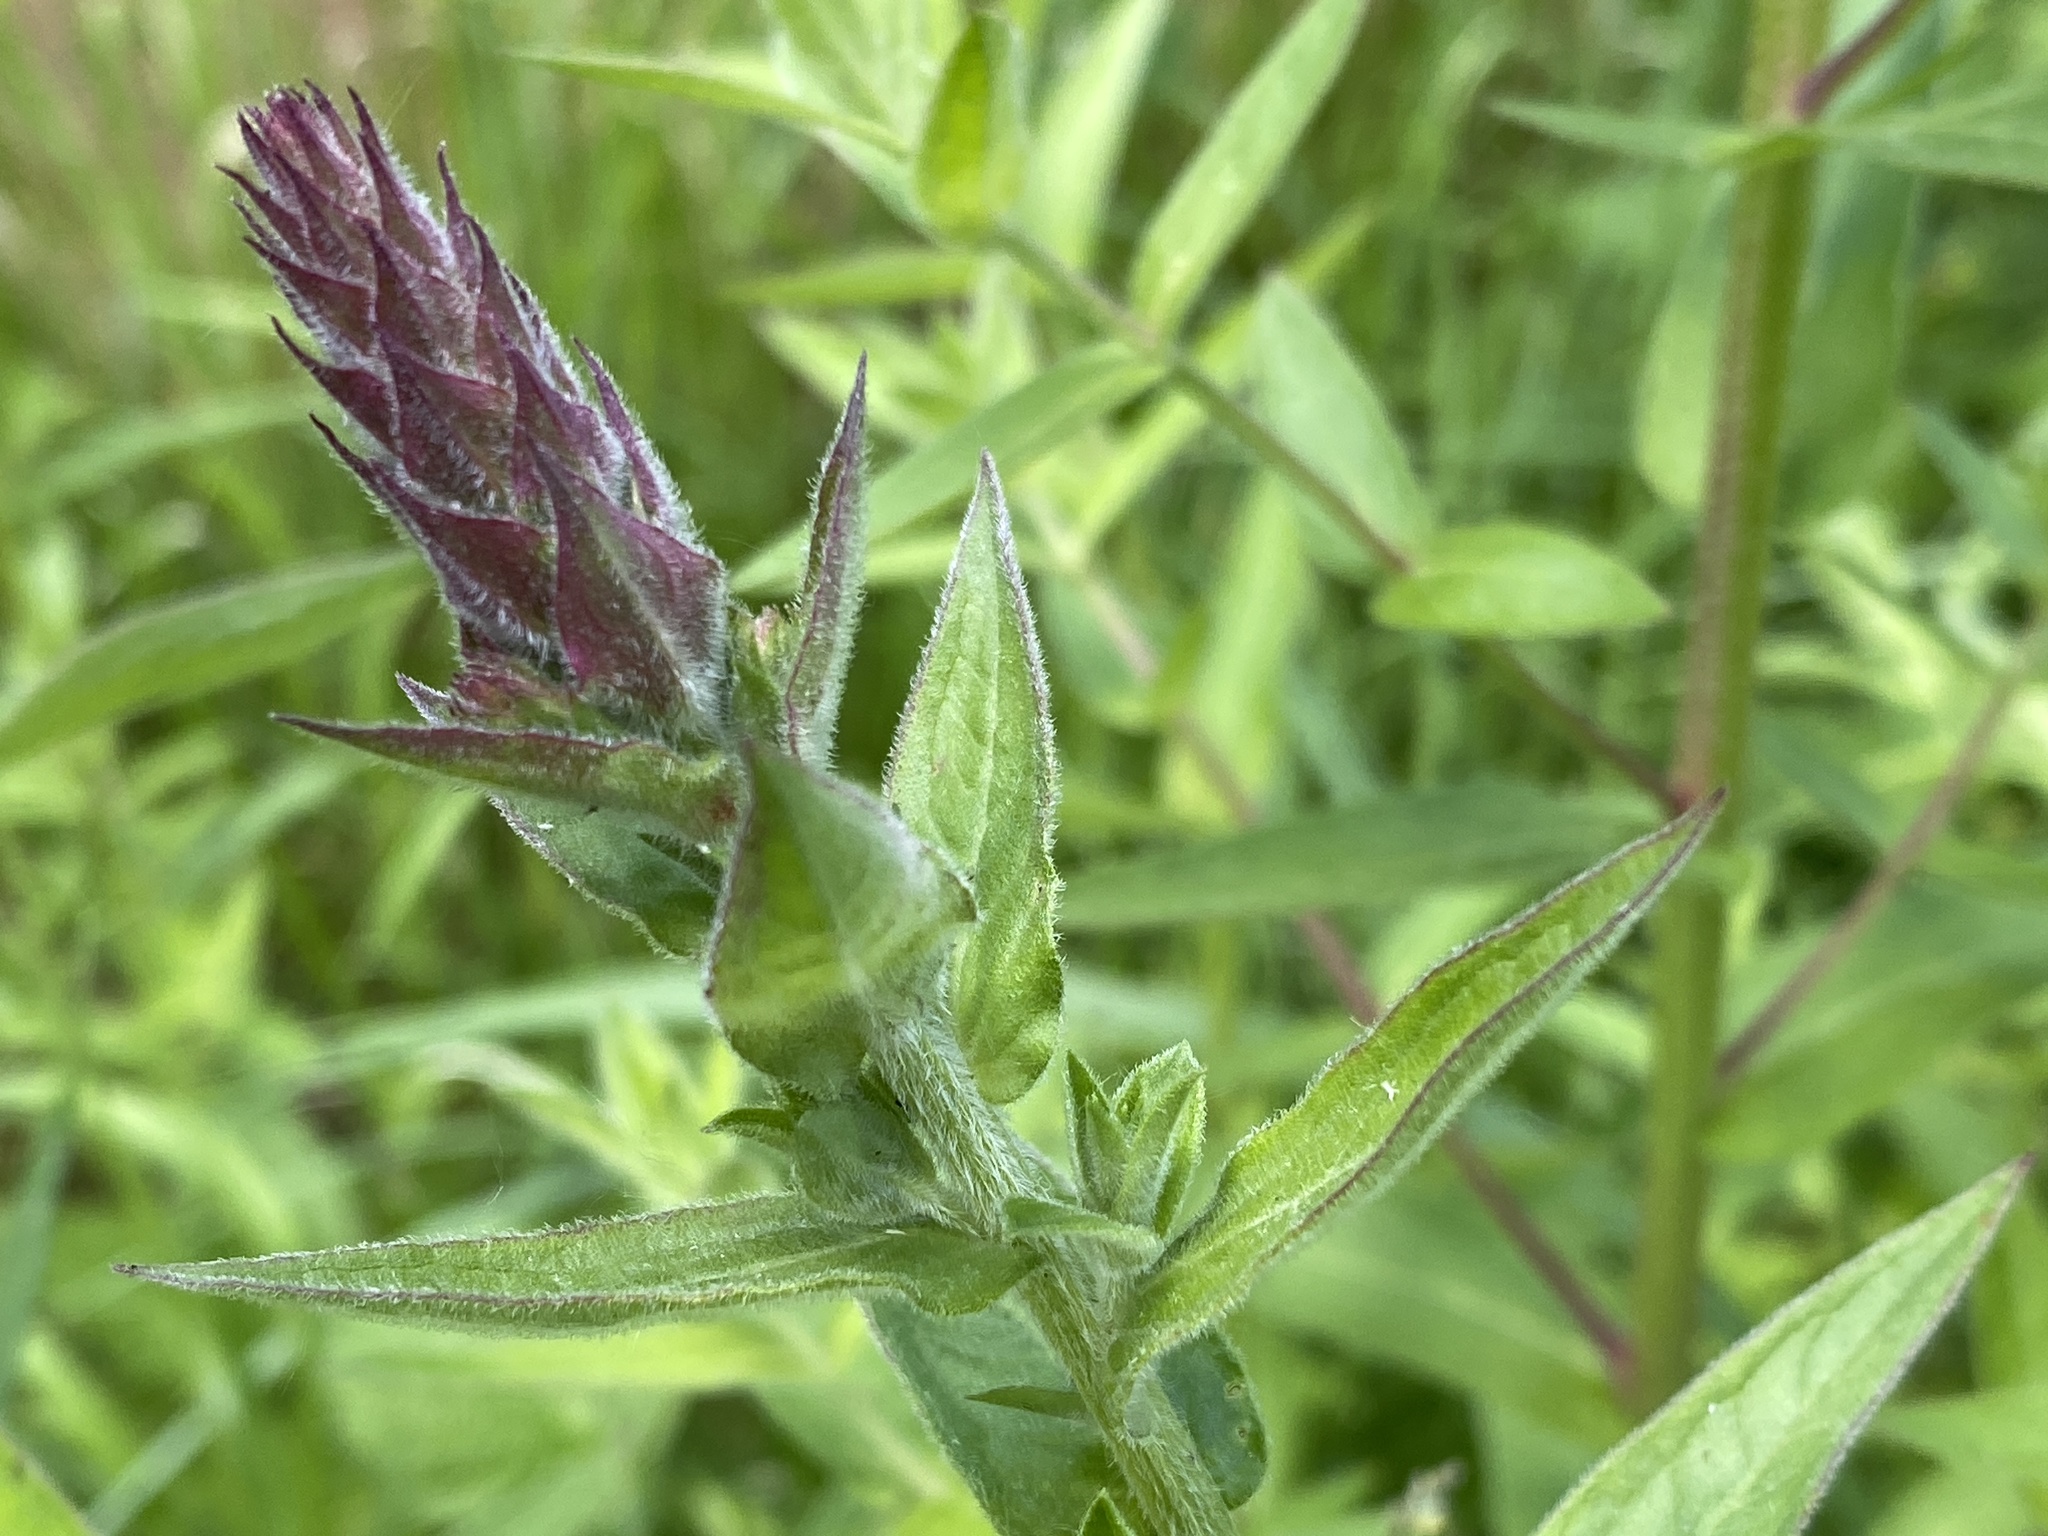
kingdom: Plantae
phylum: Tracheophyta
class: Magnoliopsida
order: Myrtales
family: Lythraceae
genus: Lythrum
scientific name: Lythrum salicaria
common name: Purple loosestrife
